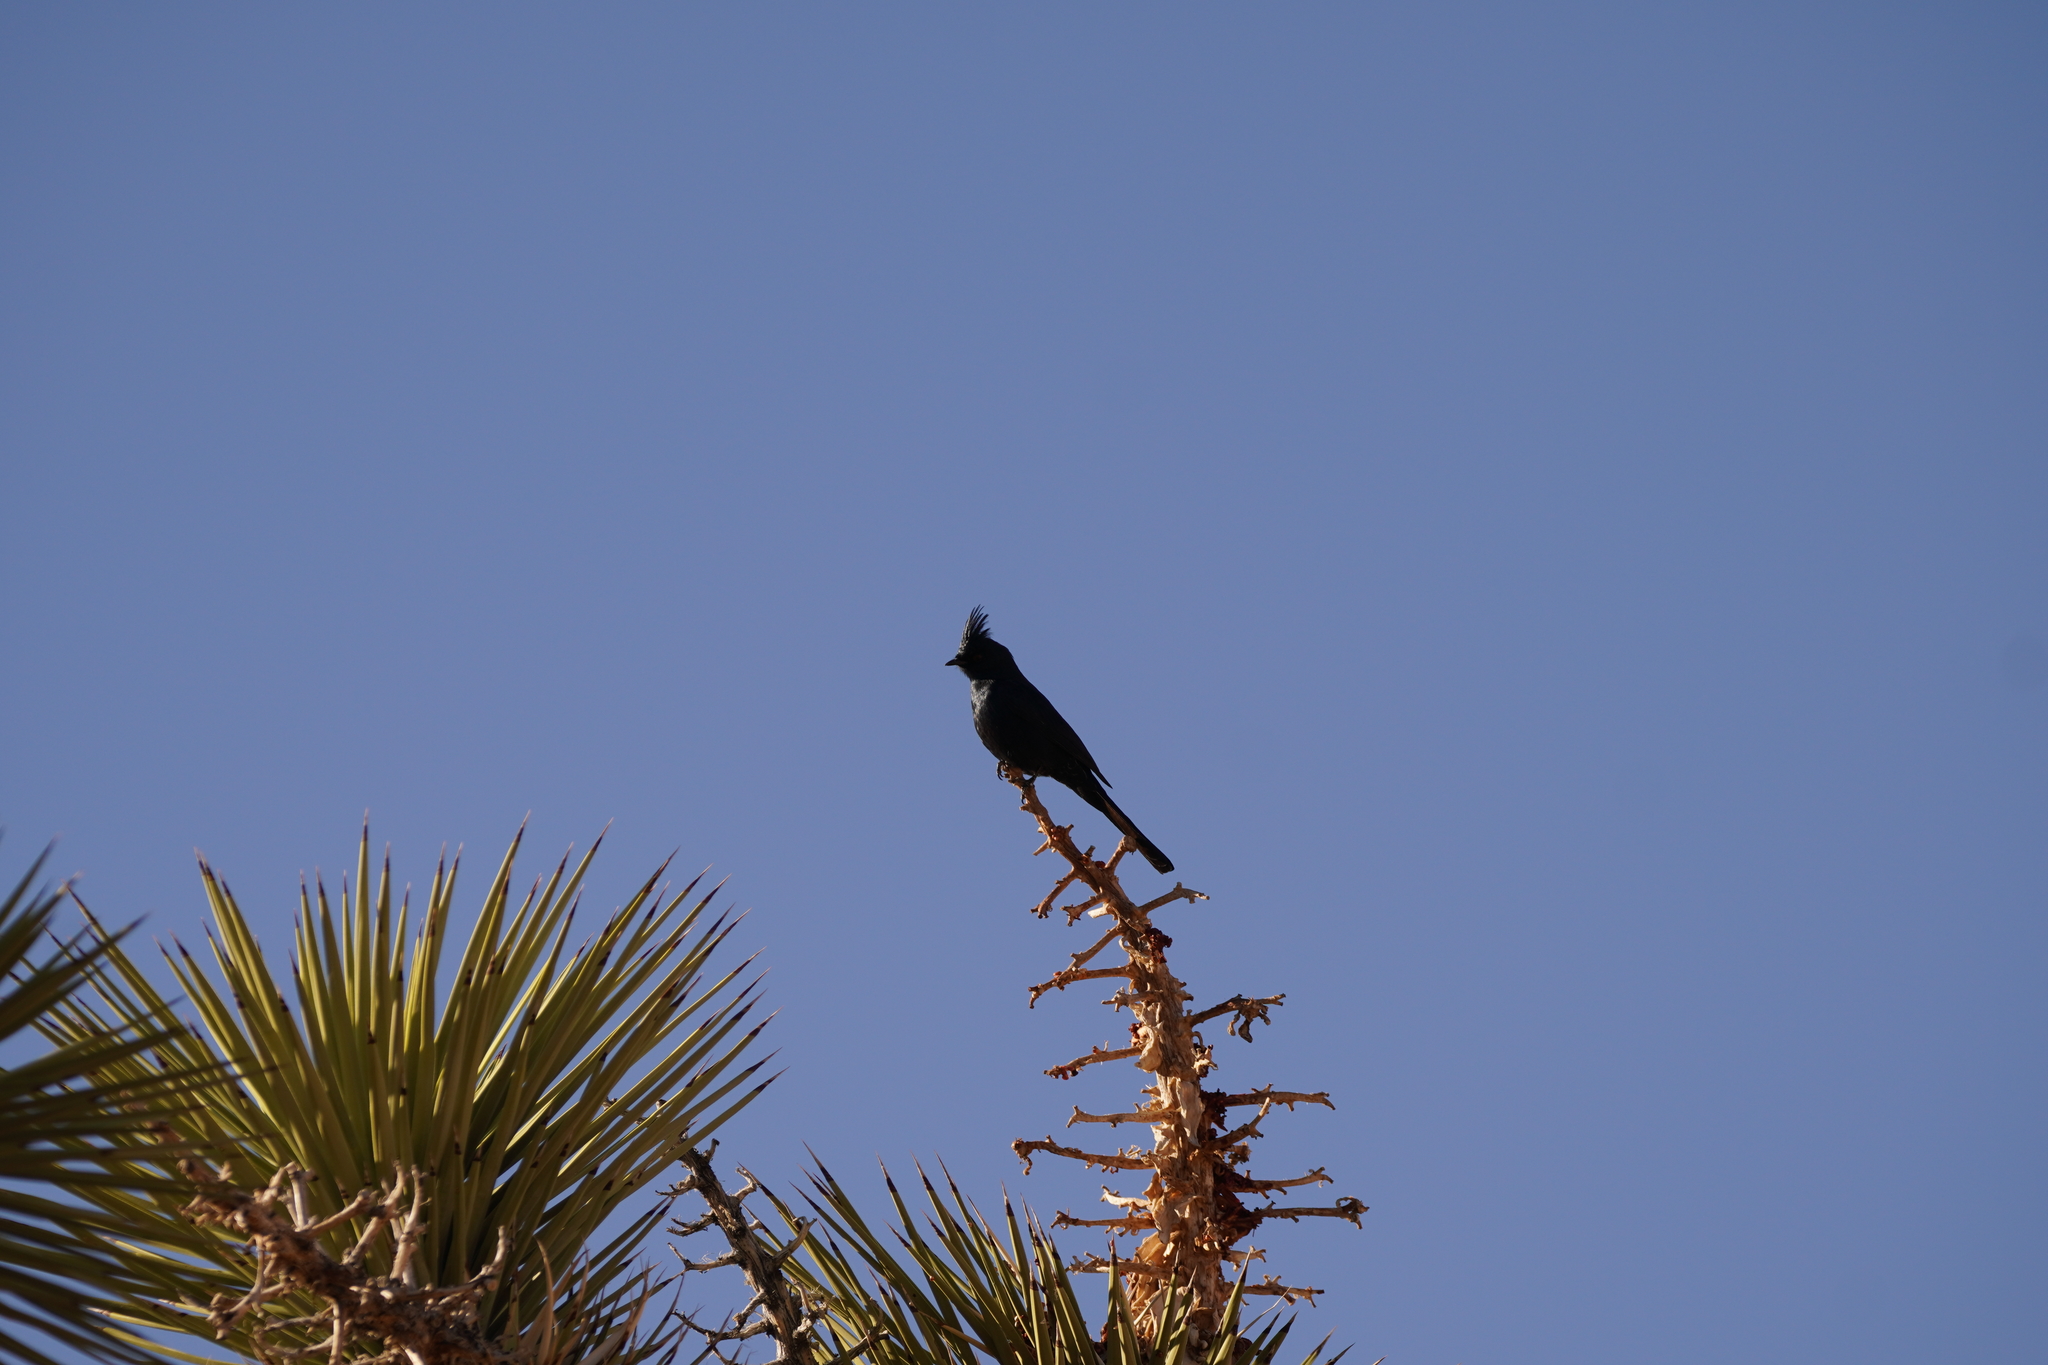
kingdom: Animalia
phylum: Chordata
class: Aves
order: Passeriformes
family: Ptilogonatidae
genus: Phainopepla
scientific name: Phainopepla nitens
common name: Phainopepla
